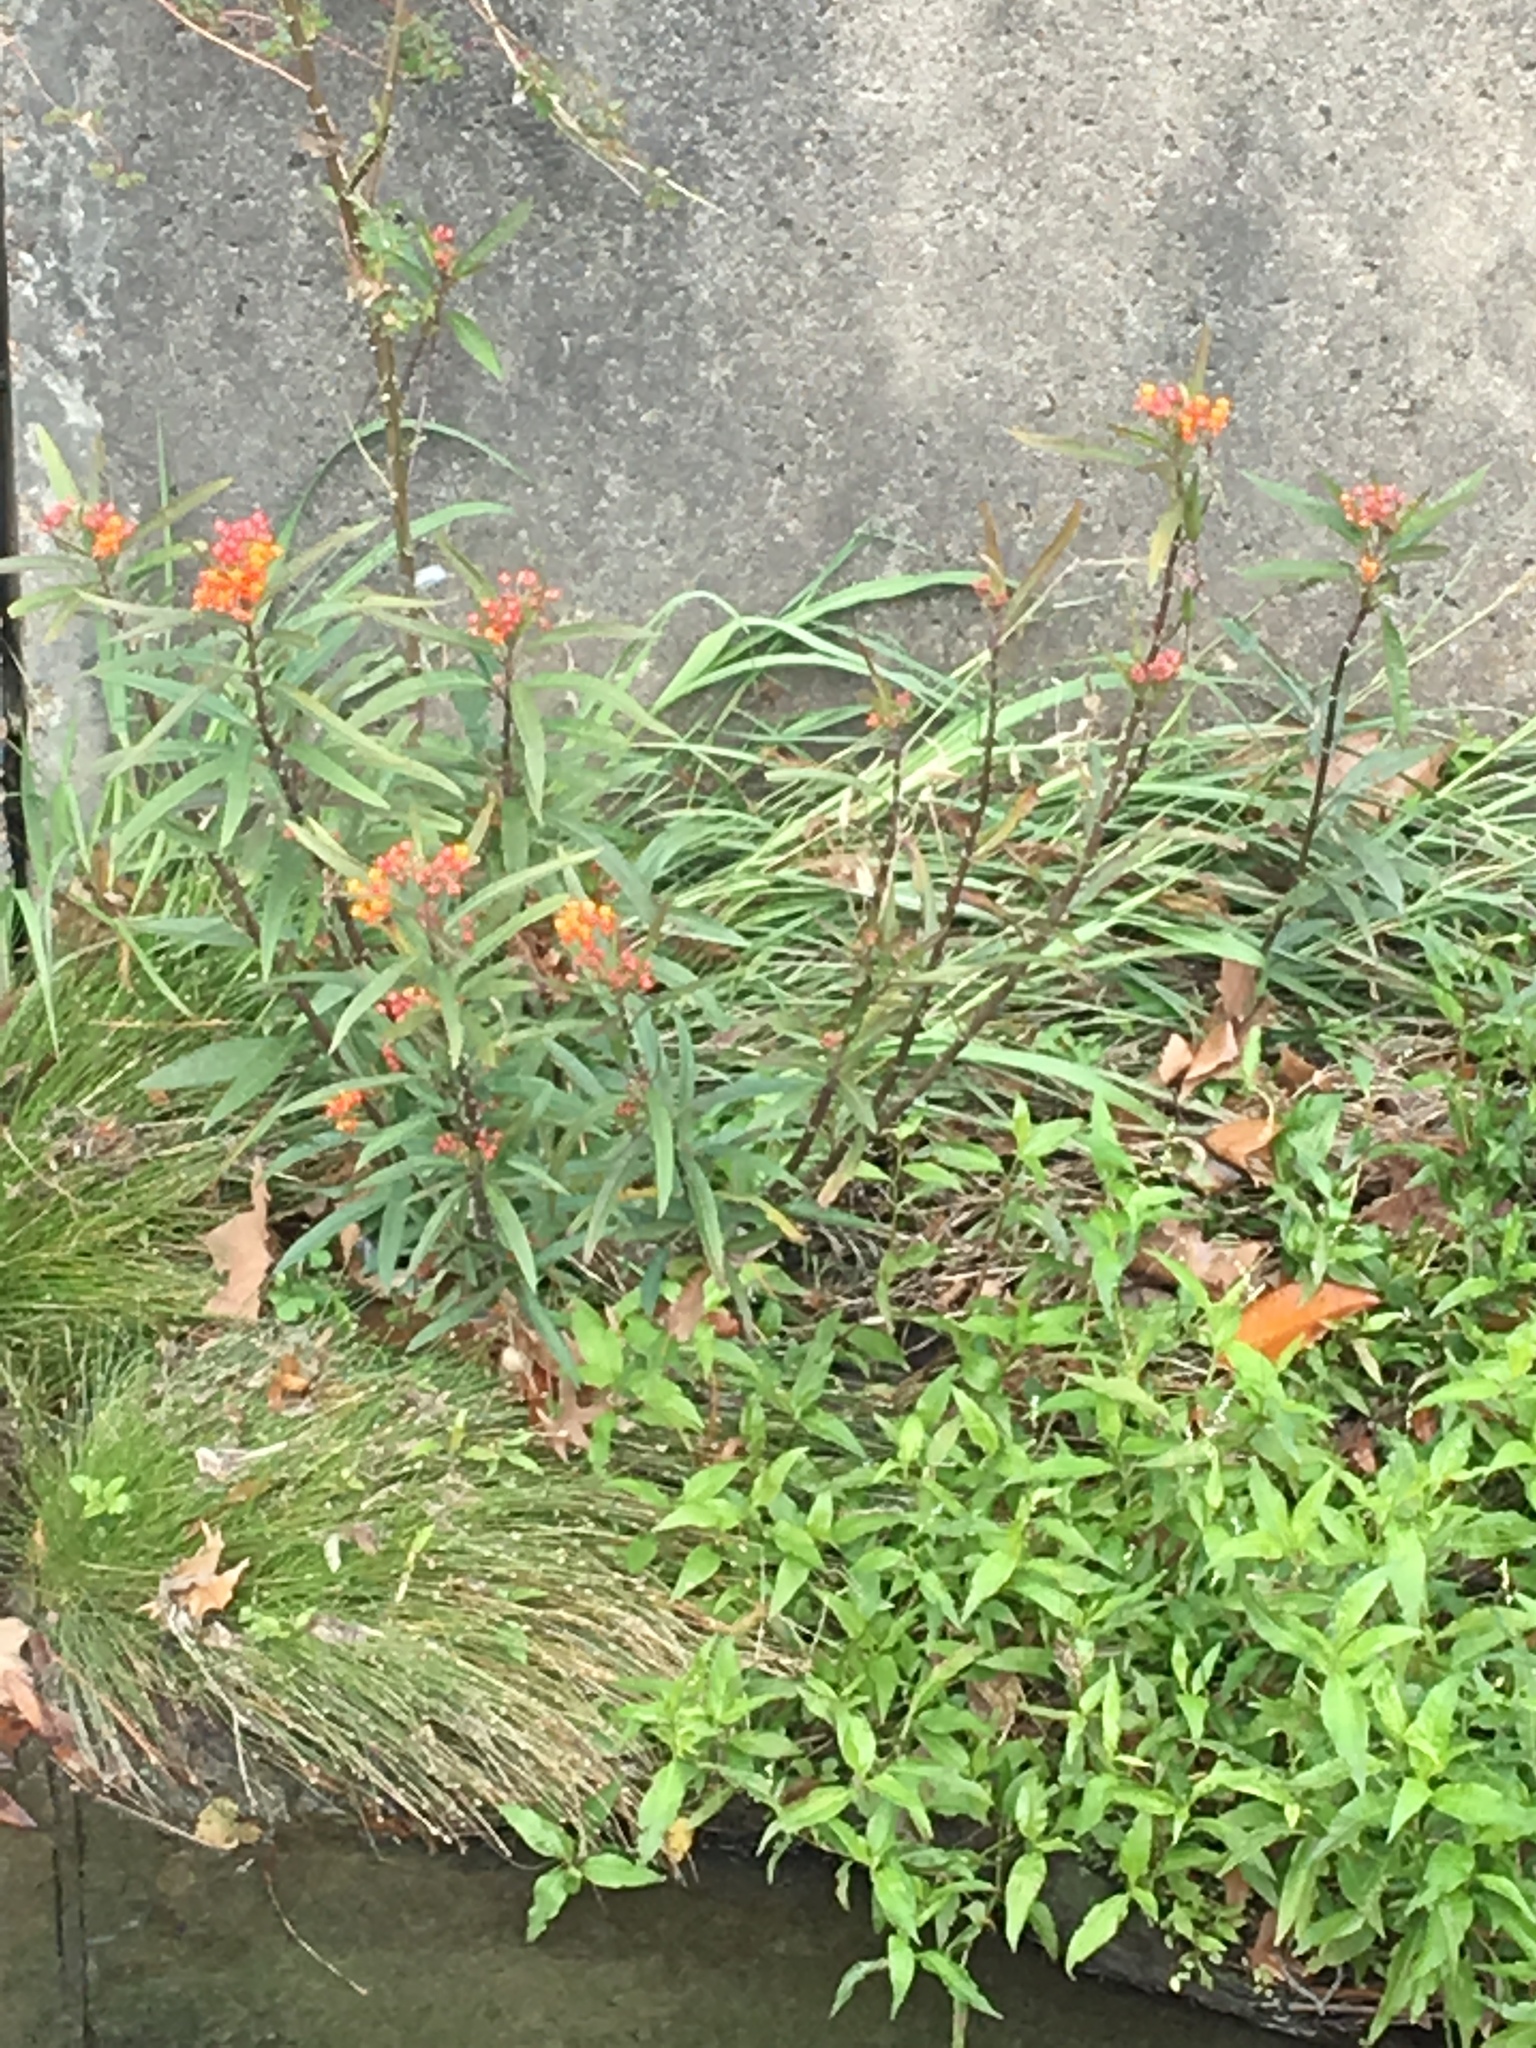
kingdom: Plantae
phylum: Tracheophyta
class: Magnoliopsida
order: Gentianales
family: Apocynaceae
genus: Asclepias
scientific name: Asclepias curassavica
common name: Bloodflower
